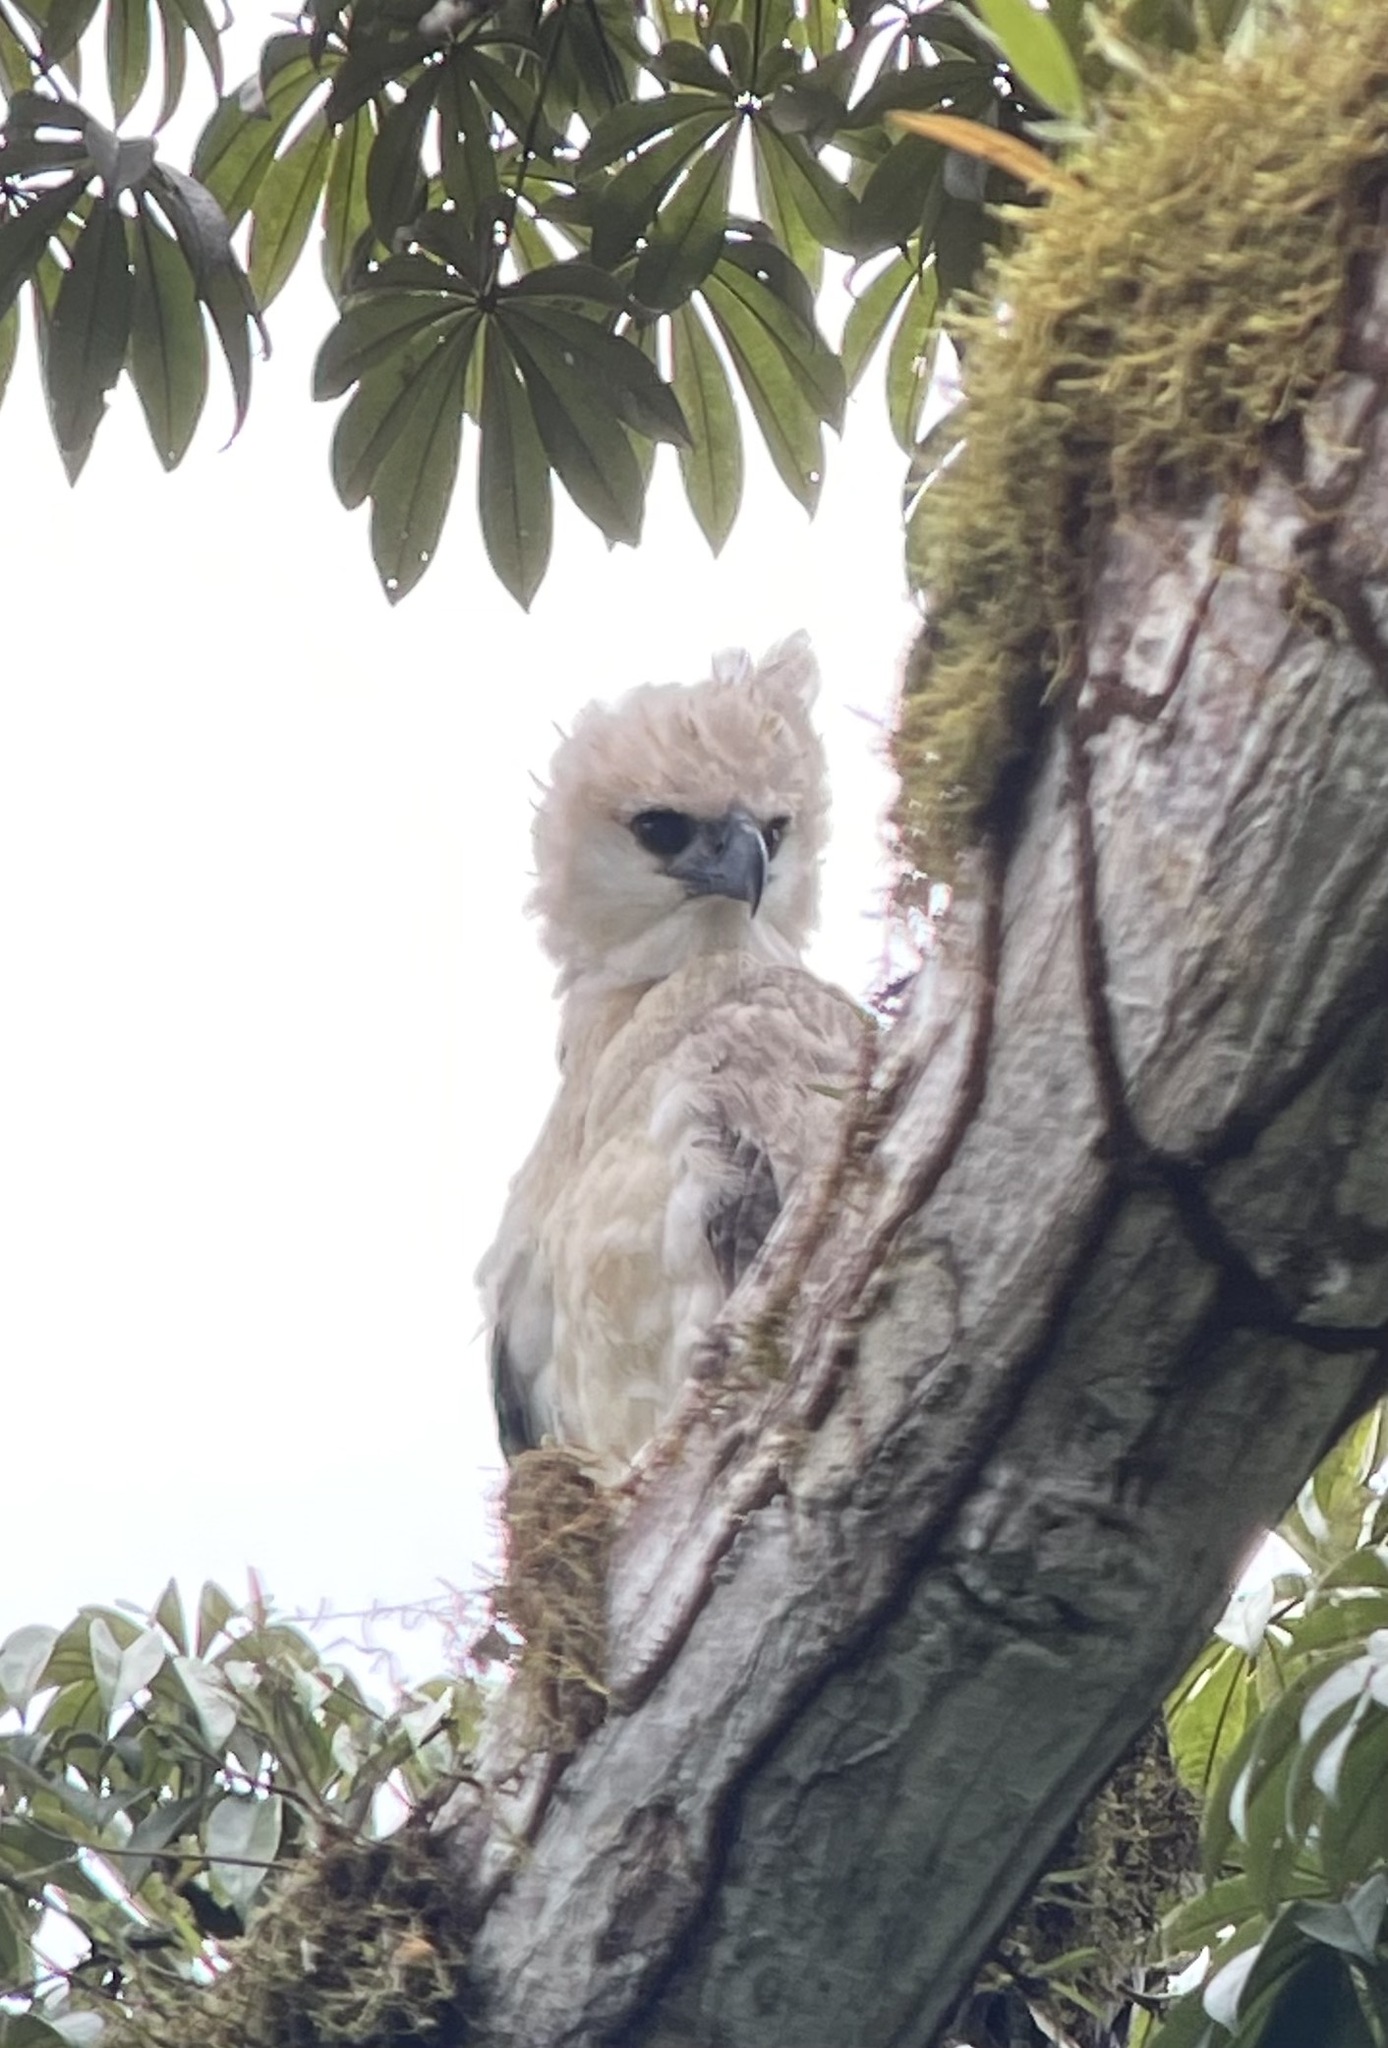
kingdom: Animalia
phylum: Chordata
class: Aves
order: Accipitriformes
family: Accipitridae
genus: Harpia
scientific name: Harpia harpyja
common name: Harpy eagle
